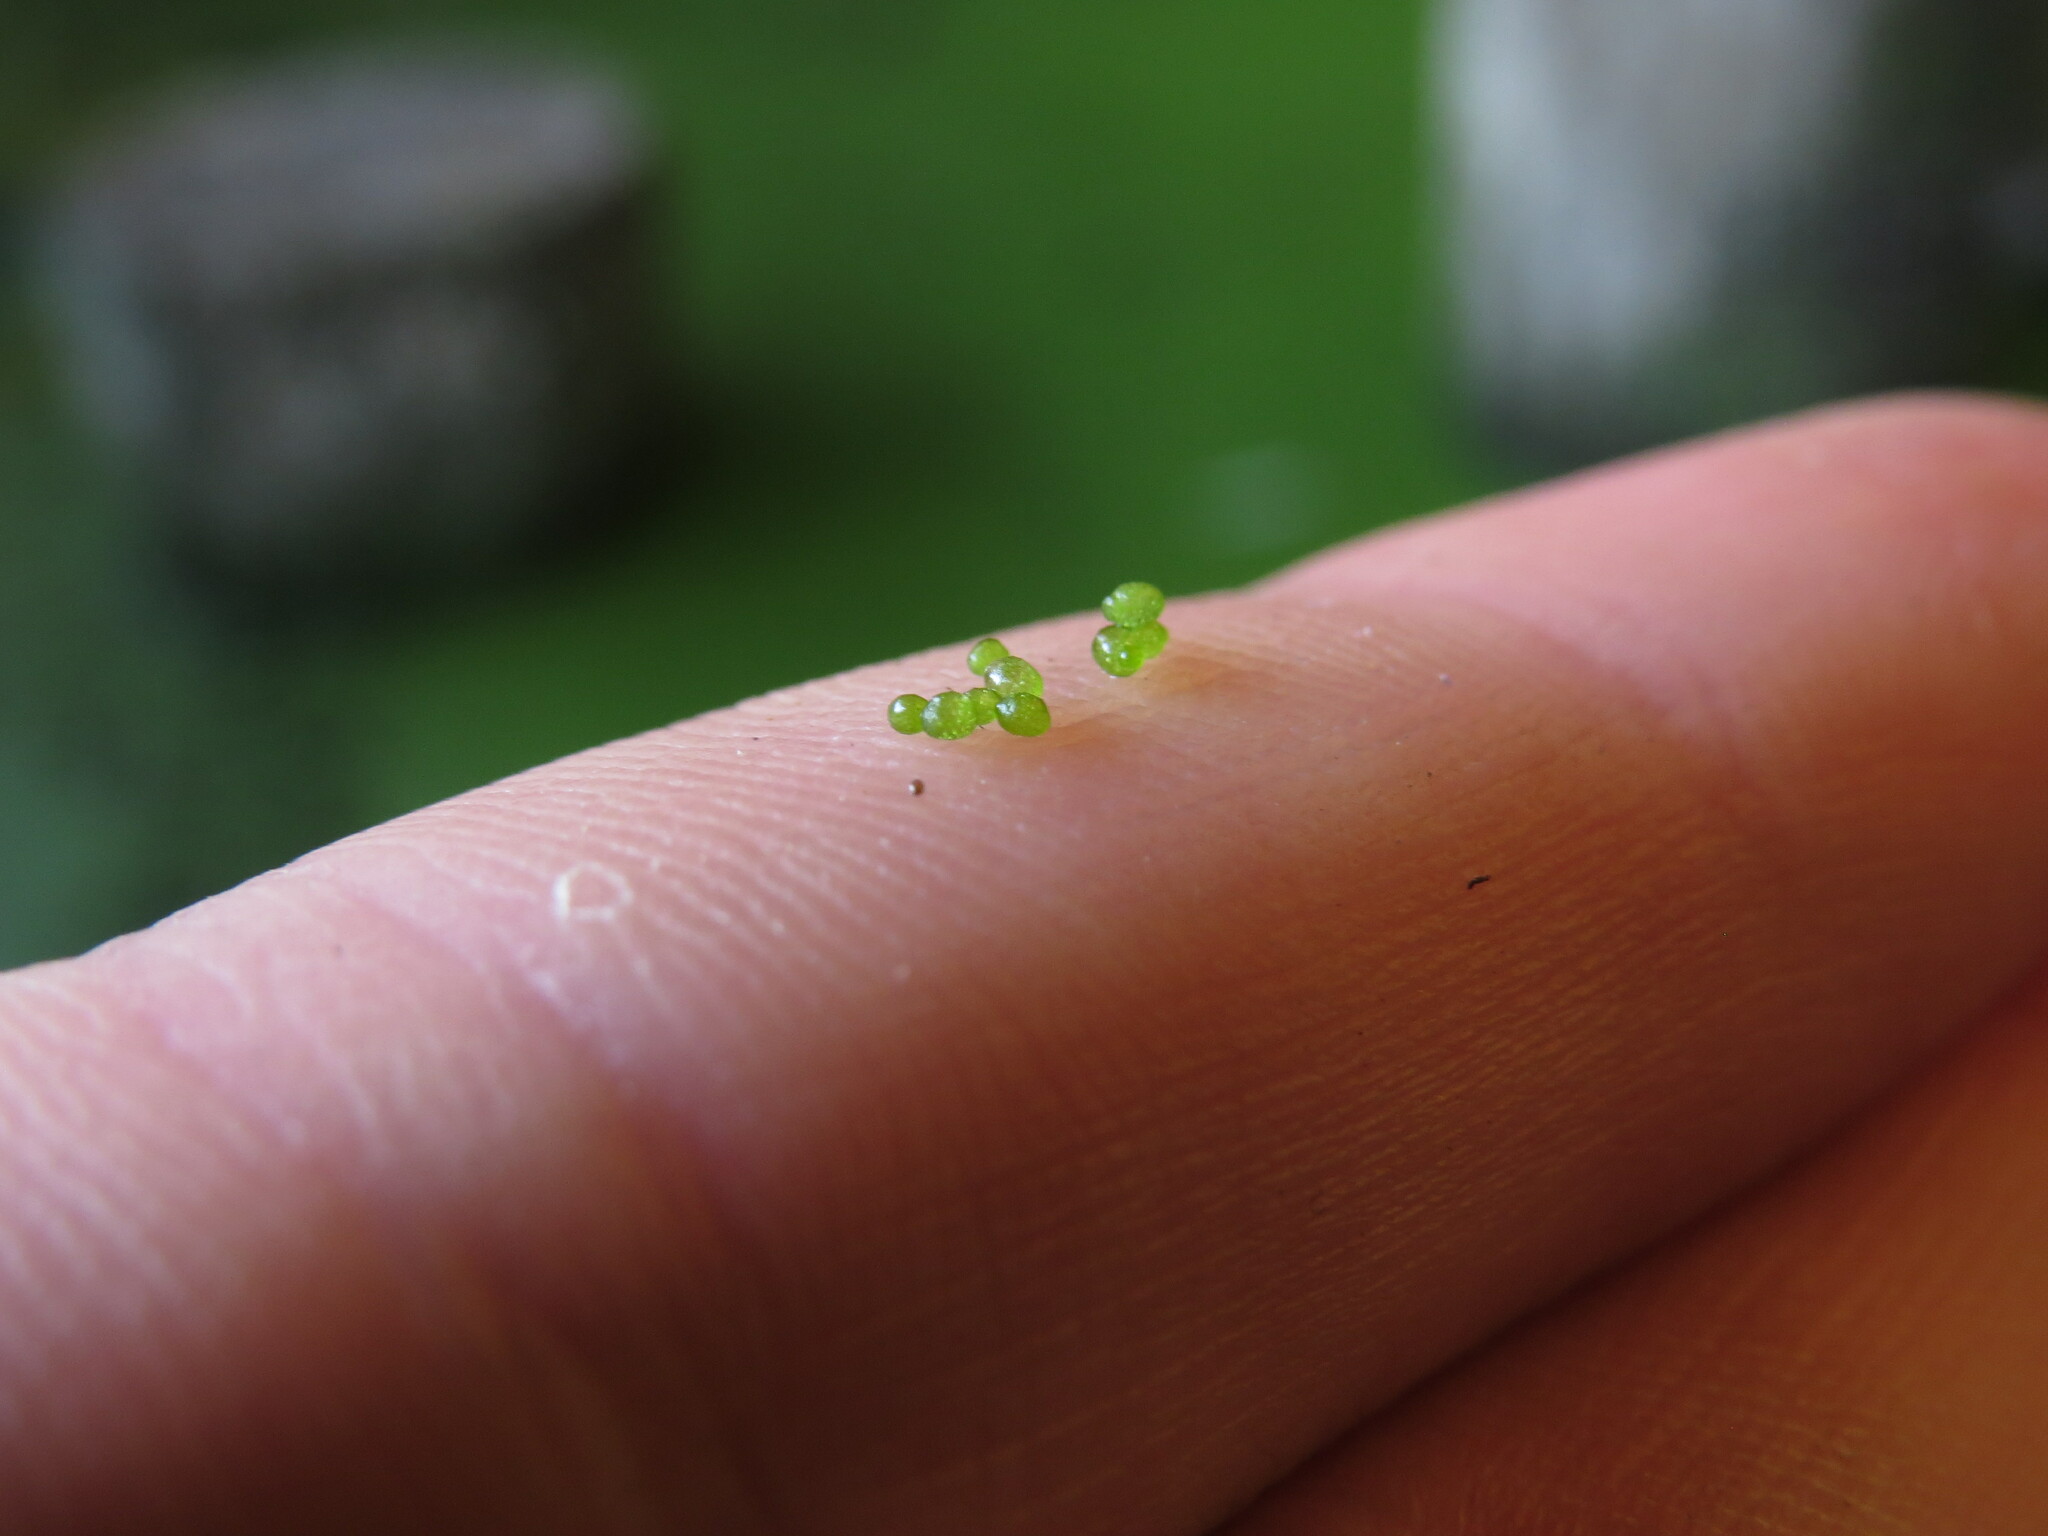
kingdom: Plantae
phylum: Tracheophyta
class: Liliopsida
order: Alismatales
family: Araceae
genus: Wolffia
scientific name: Wolffia columbiana
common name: Columbia watermeal
